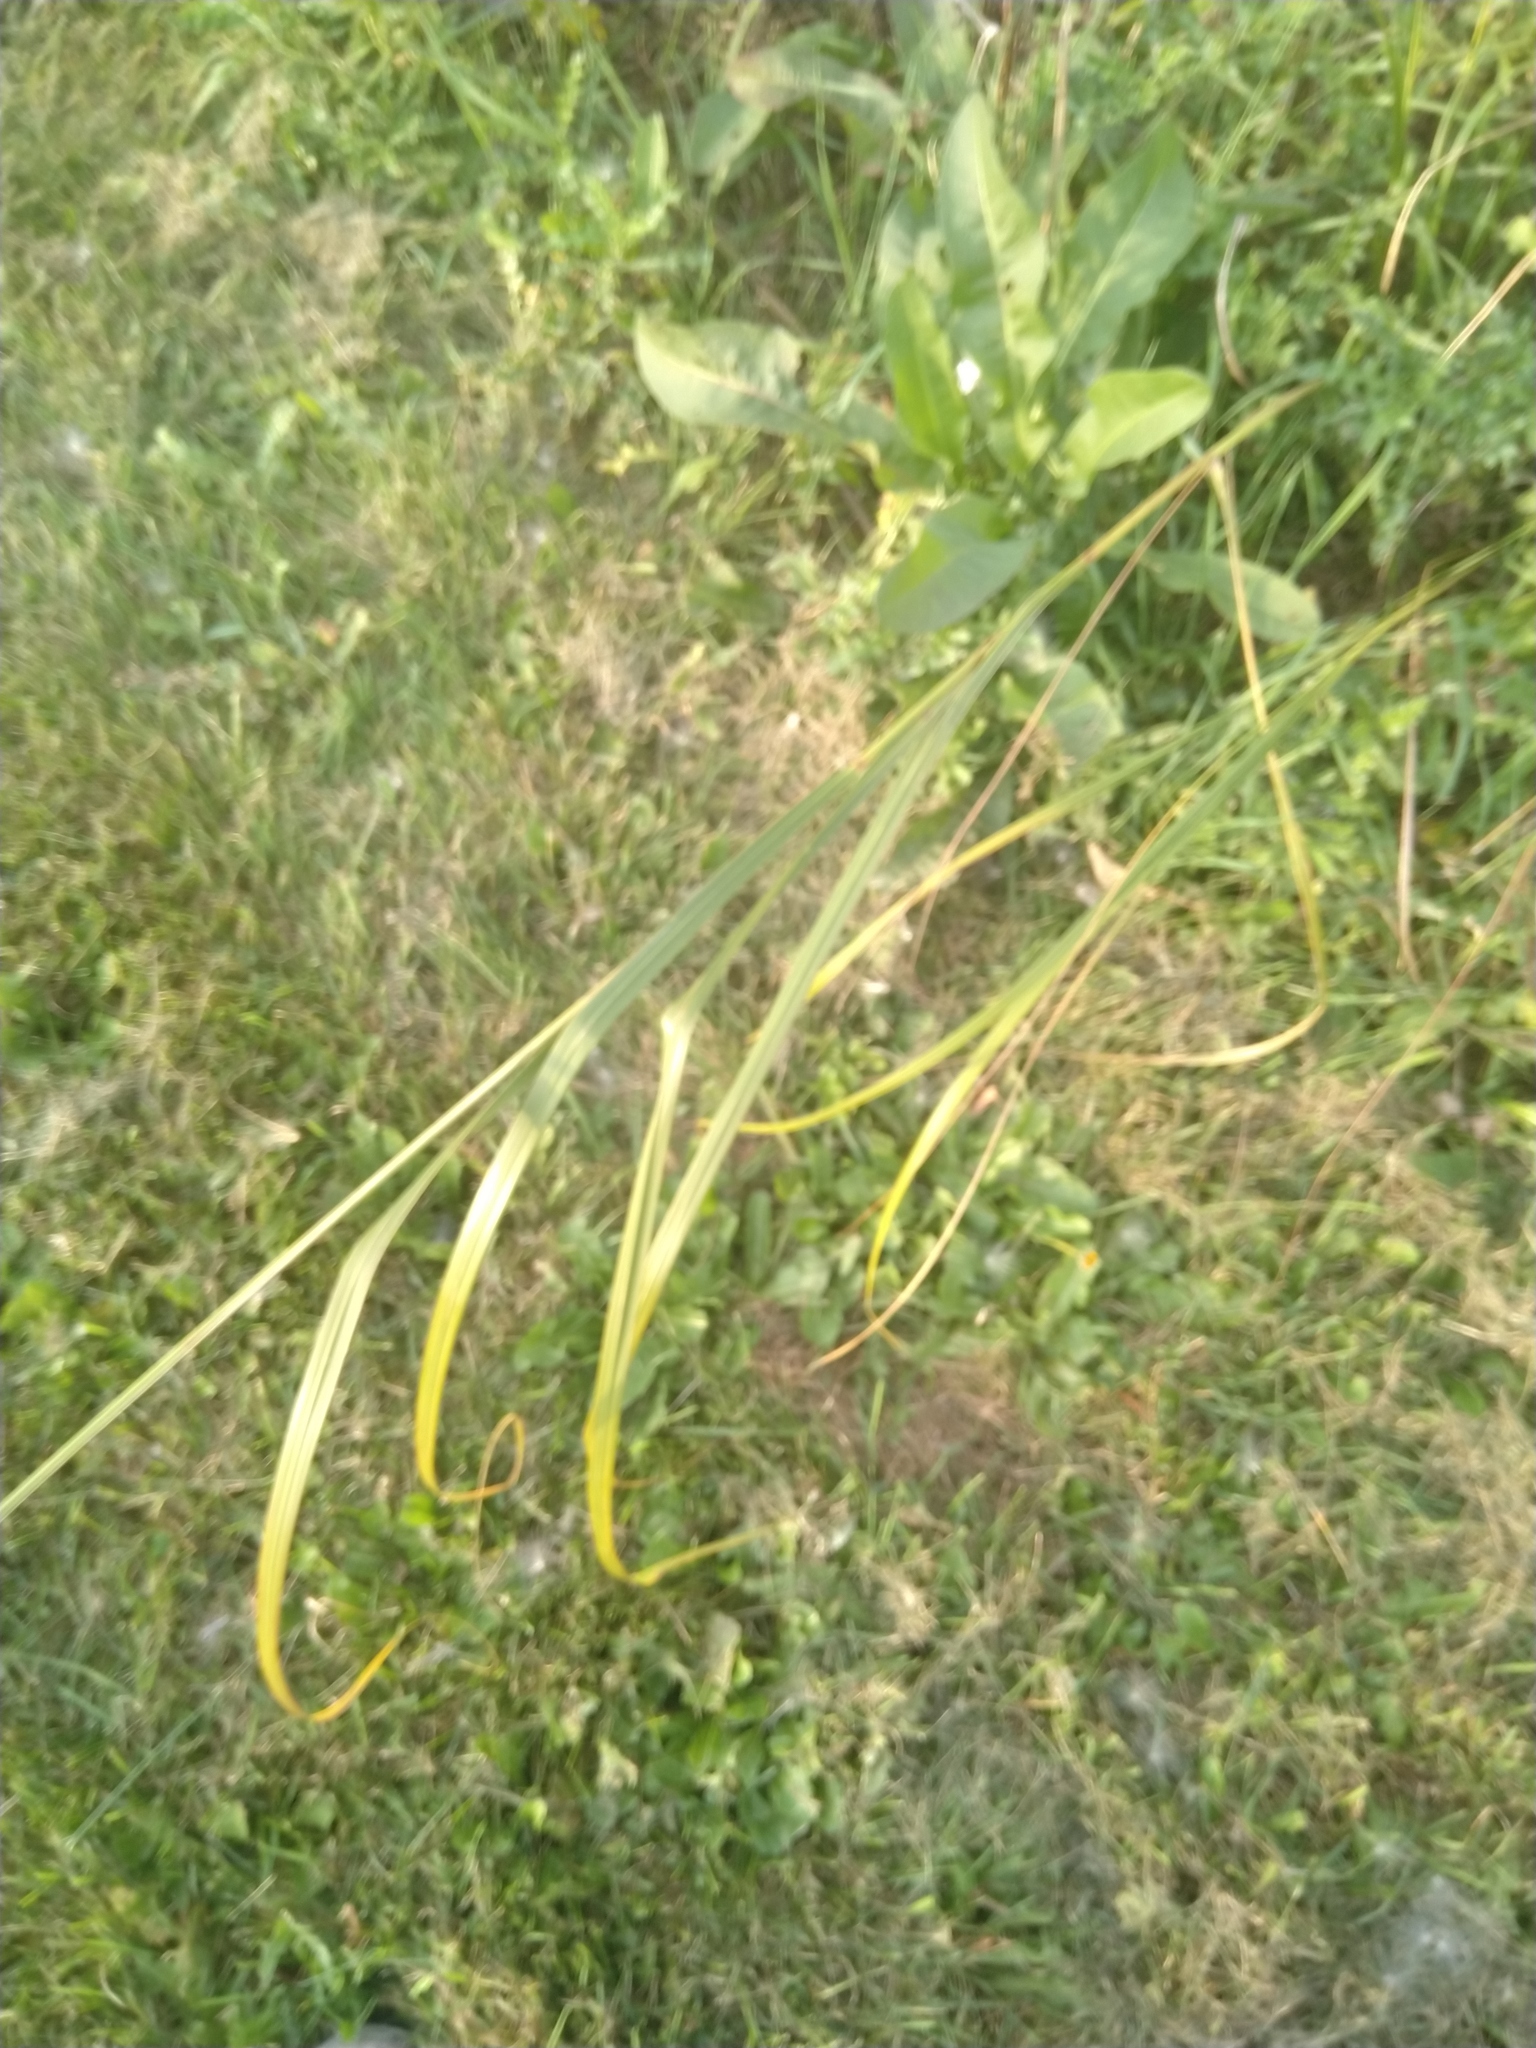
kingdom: Plantae
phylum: Tracheophyta
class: Liliopsida
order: Poales
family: Poaceae
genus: Sporobolus
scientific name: Sporobolus michauxianus
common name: Freshwater cordgrass
